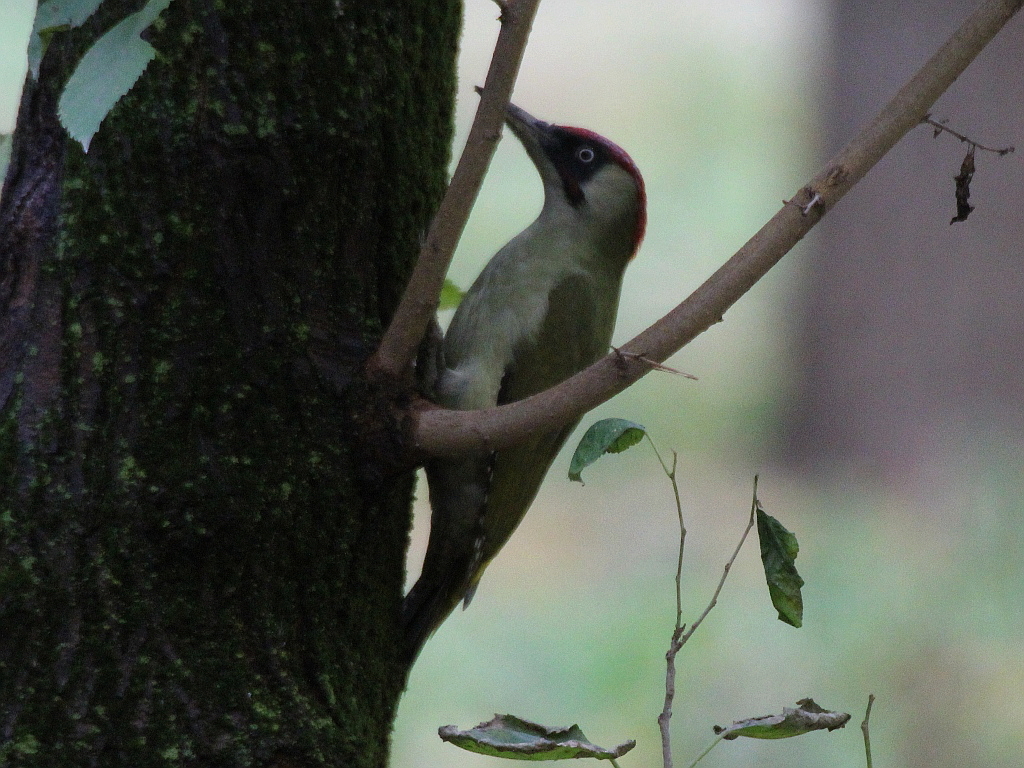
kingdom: Animalia
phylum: Chordata
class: Aves
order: Piciformes
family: Picidae
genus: Picus
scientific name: Picus viridis
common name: European green woodpecker
